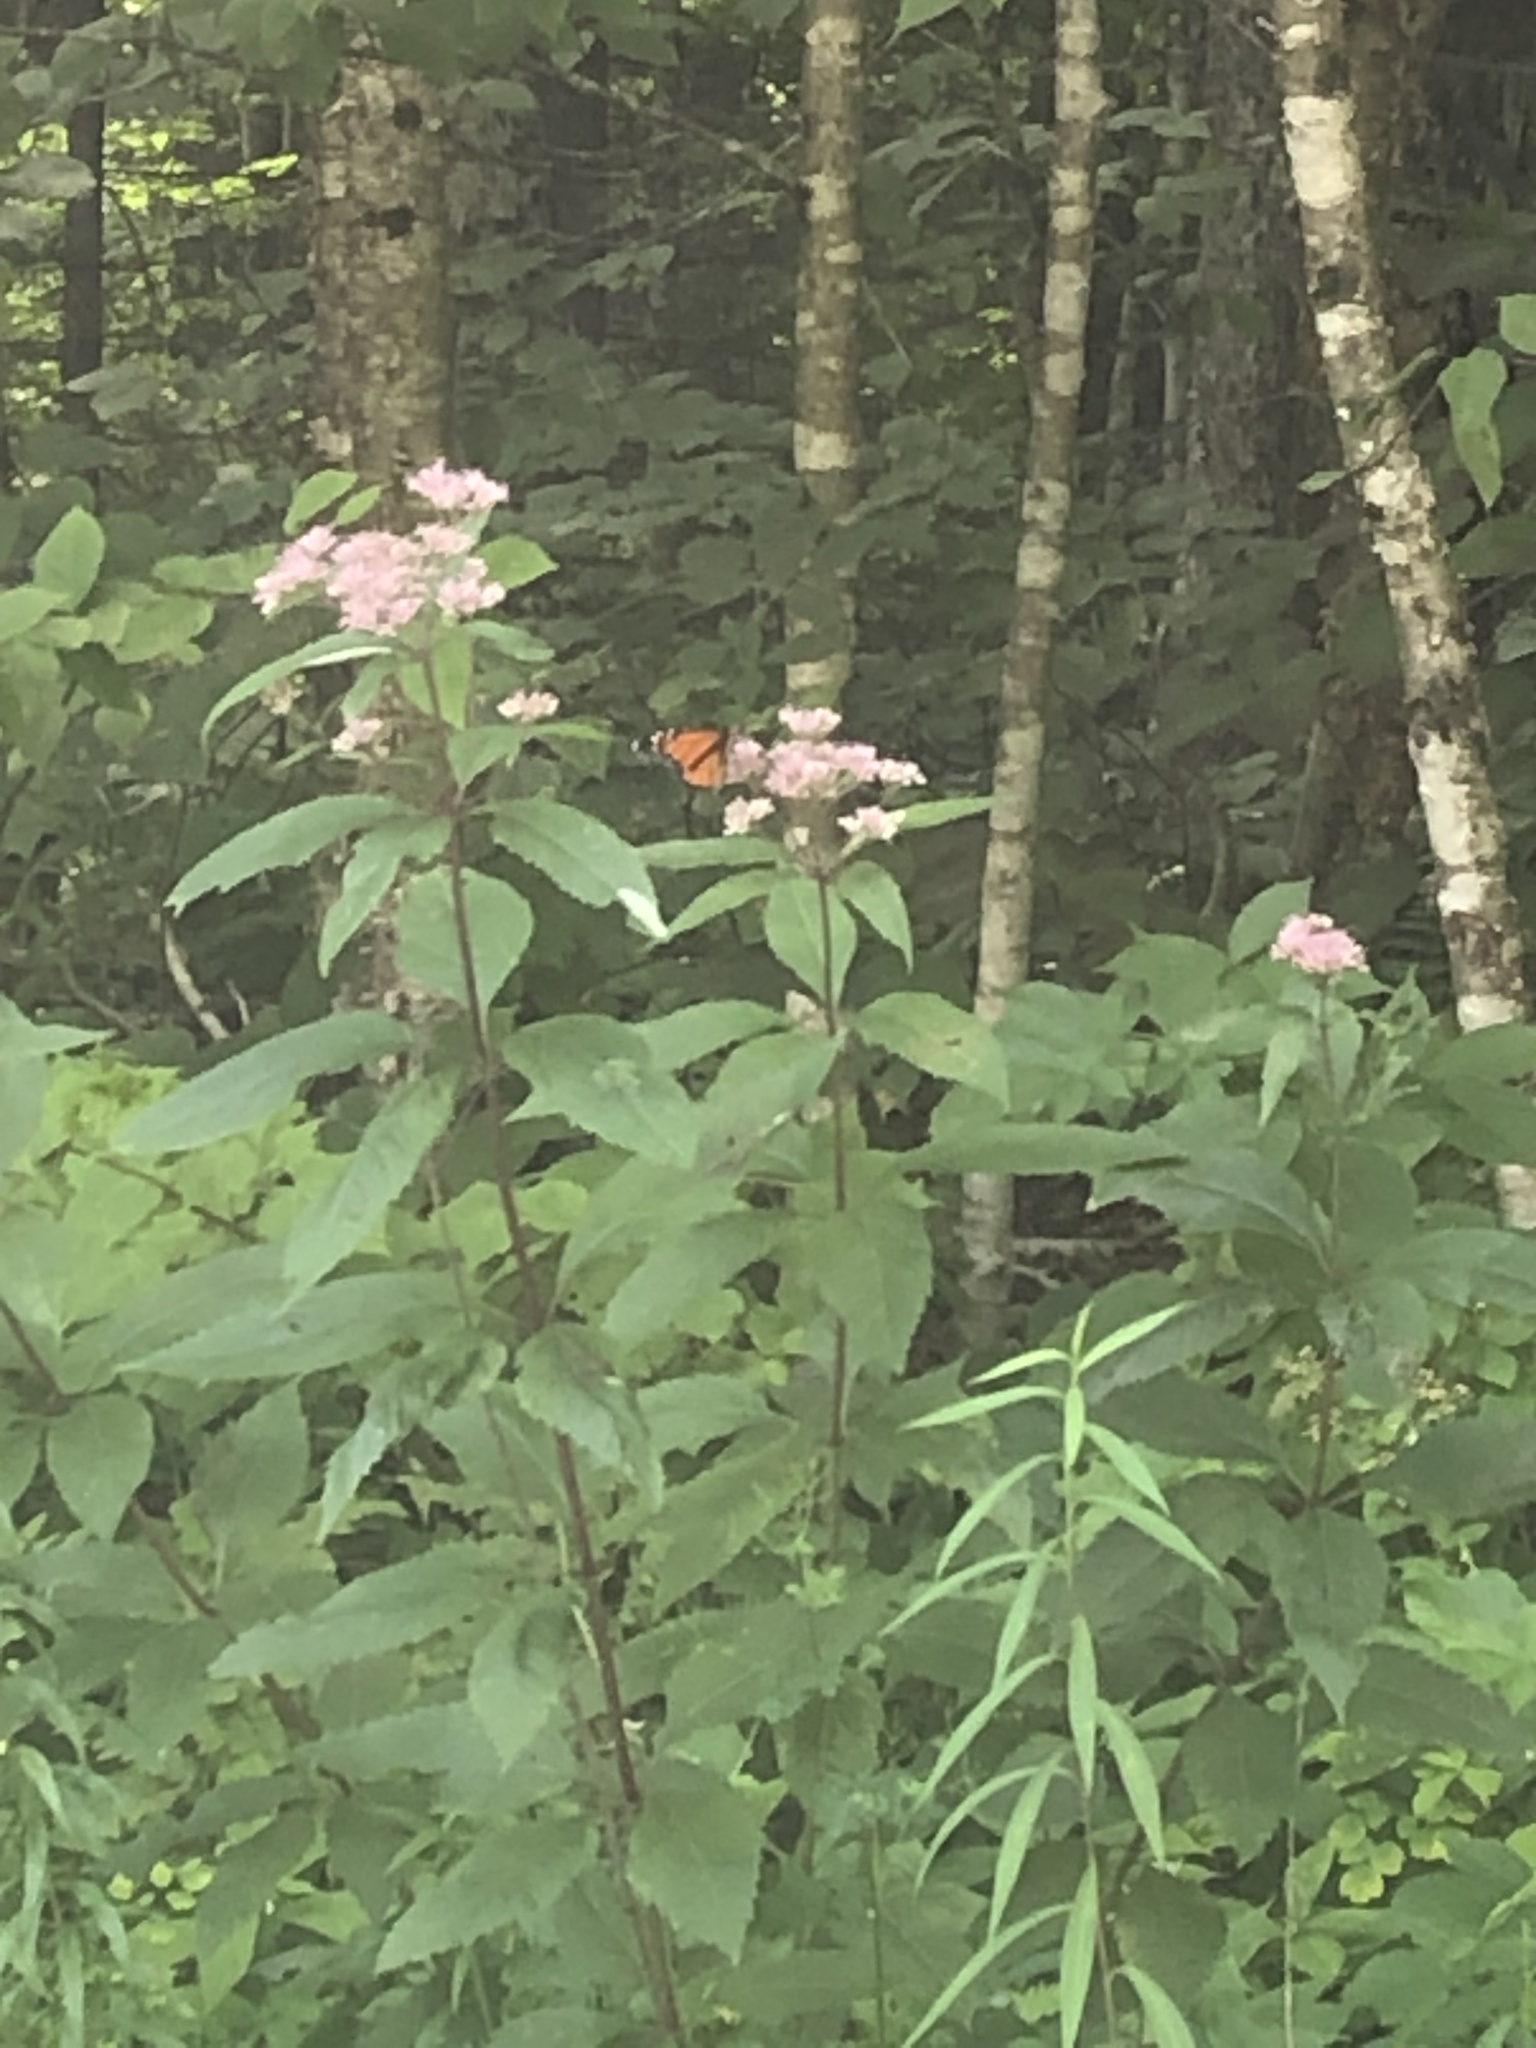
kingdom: Animalia
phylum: Arthropoda
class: Insecta
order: Lepidoptera
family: Nymphalidae
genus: Danaus
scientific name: Danaus plexippus
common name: Monarch
